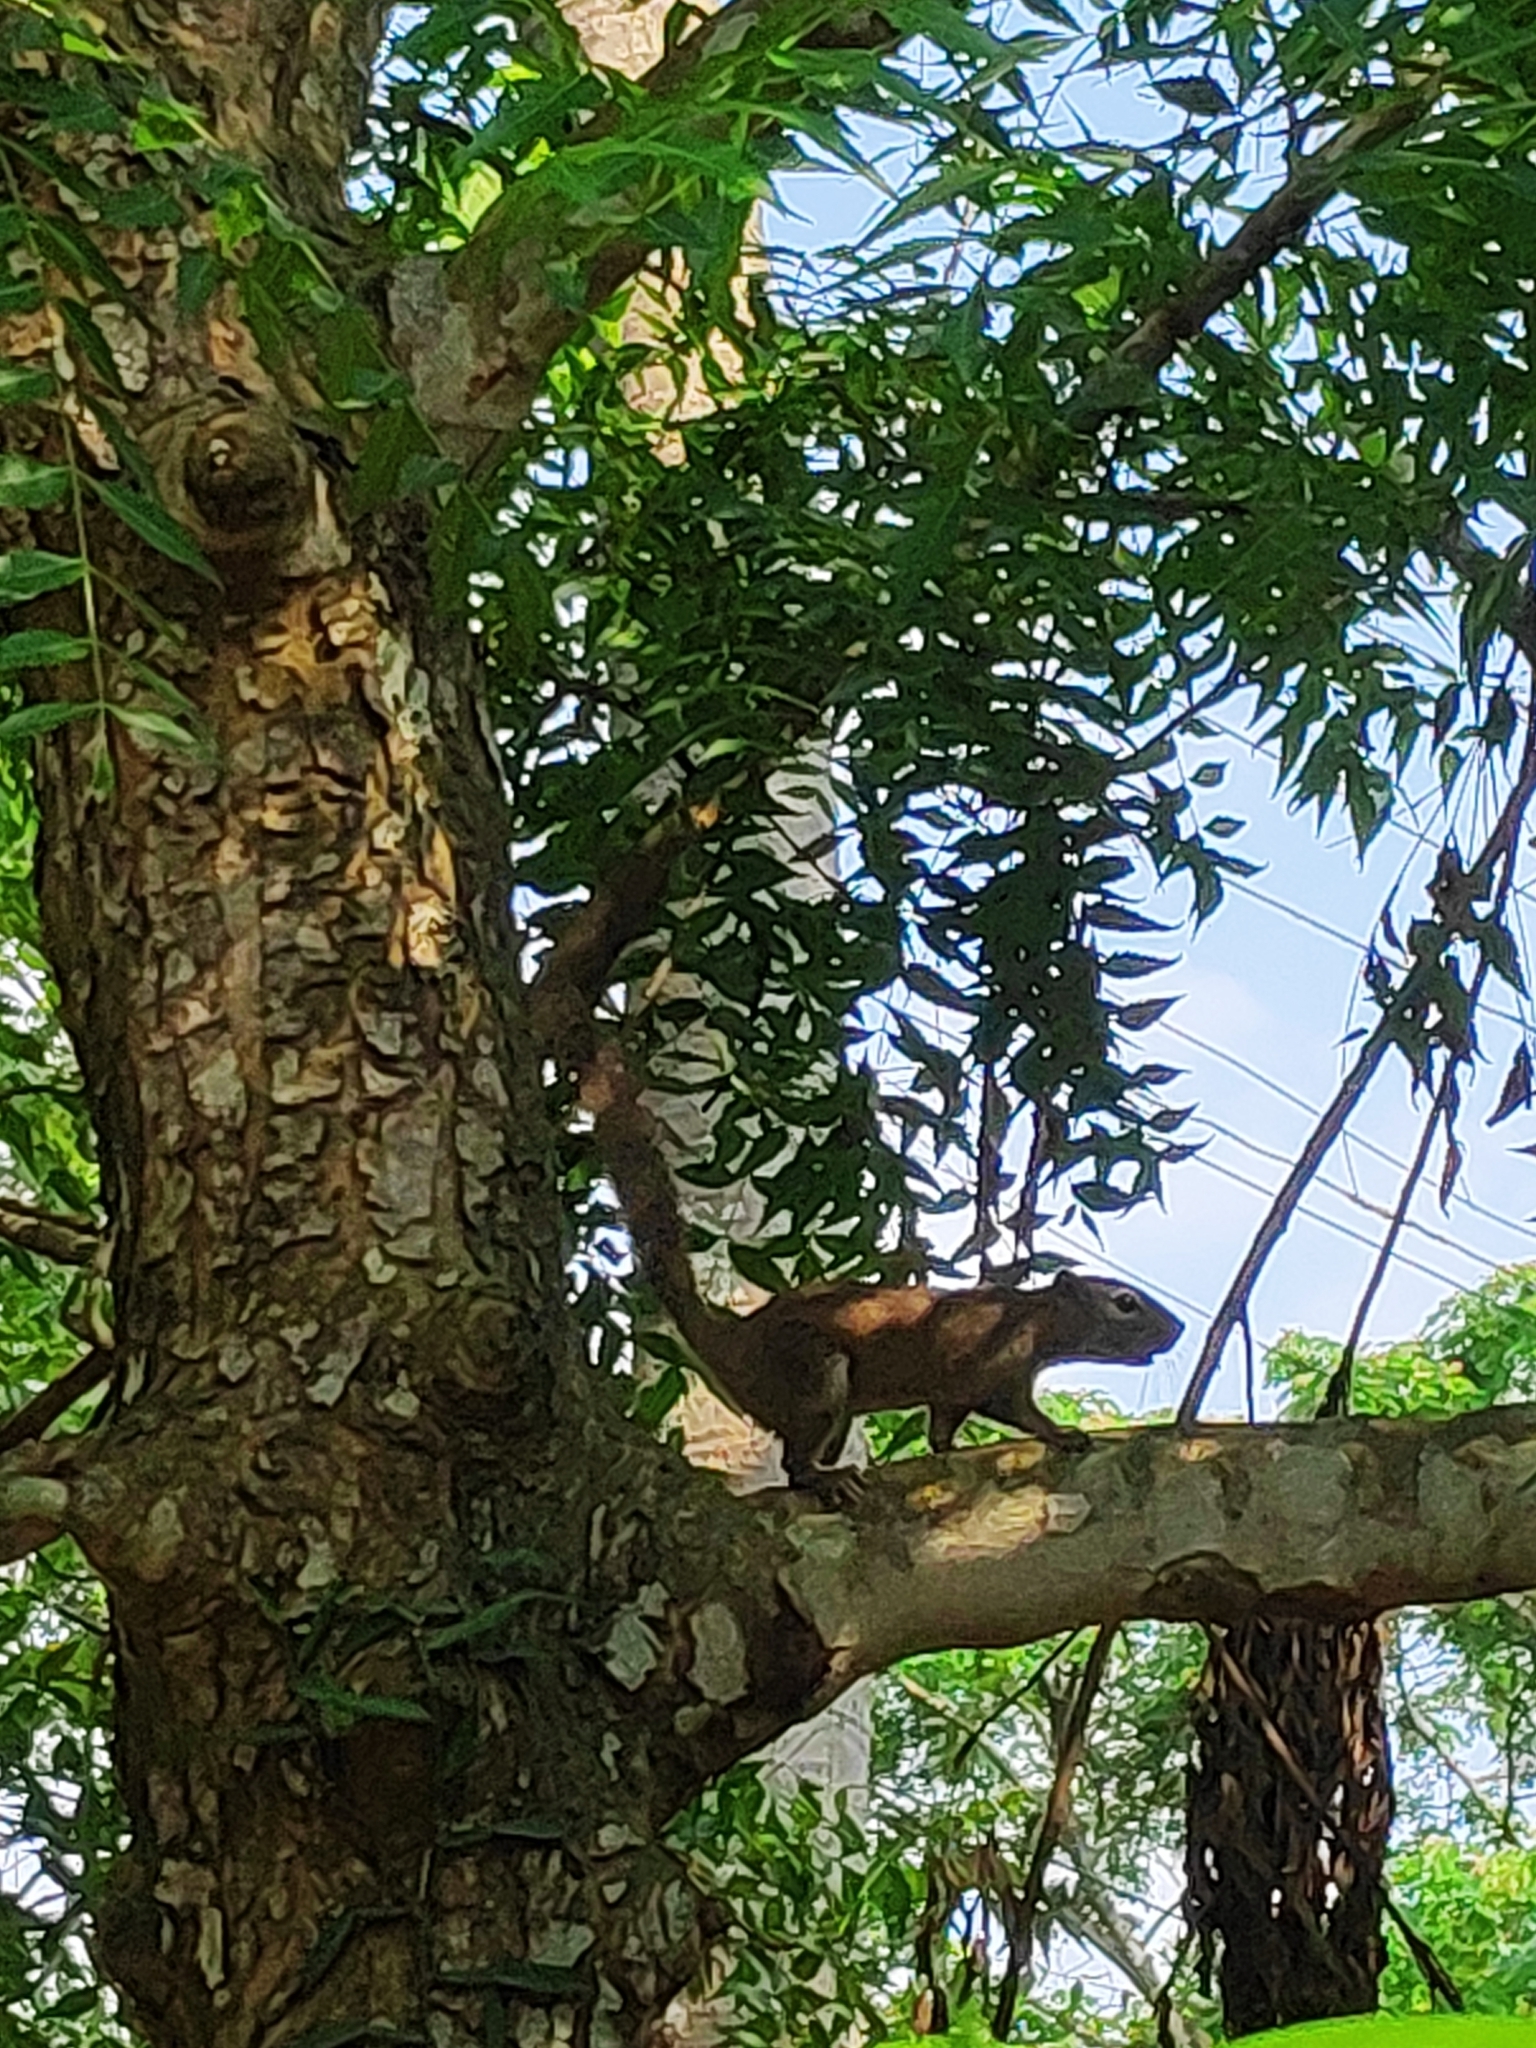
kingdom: Animalia
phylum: Chordata
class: Mammalia
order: Rodentia
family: Sciuridae
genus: Callosciurus
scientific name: Callosciurus erythraeus
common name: Pallas's squirrel
